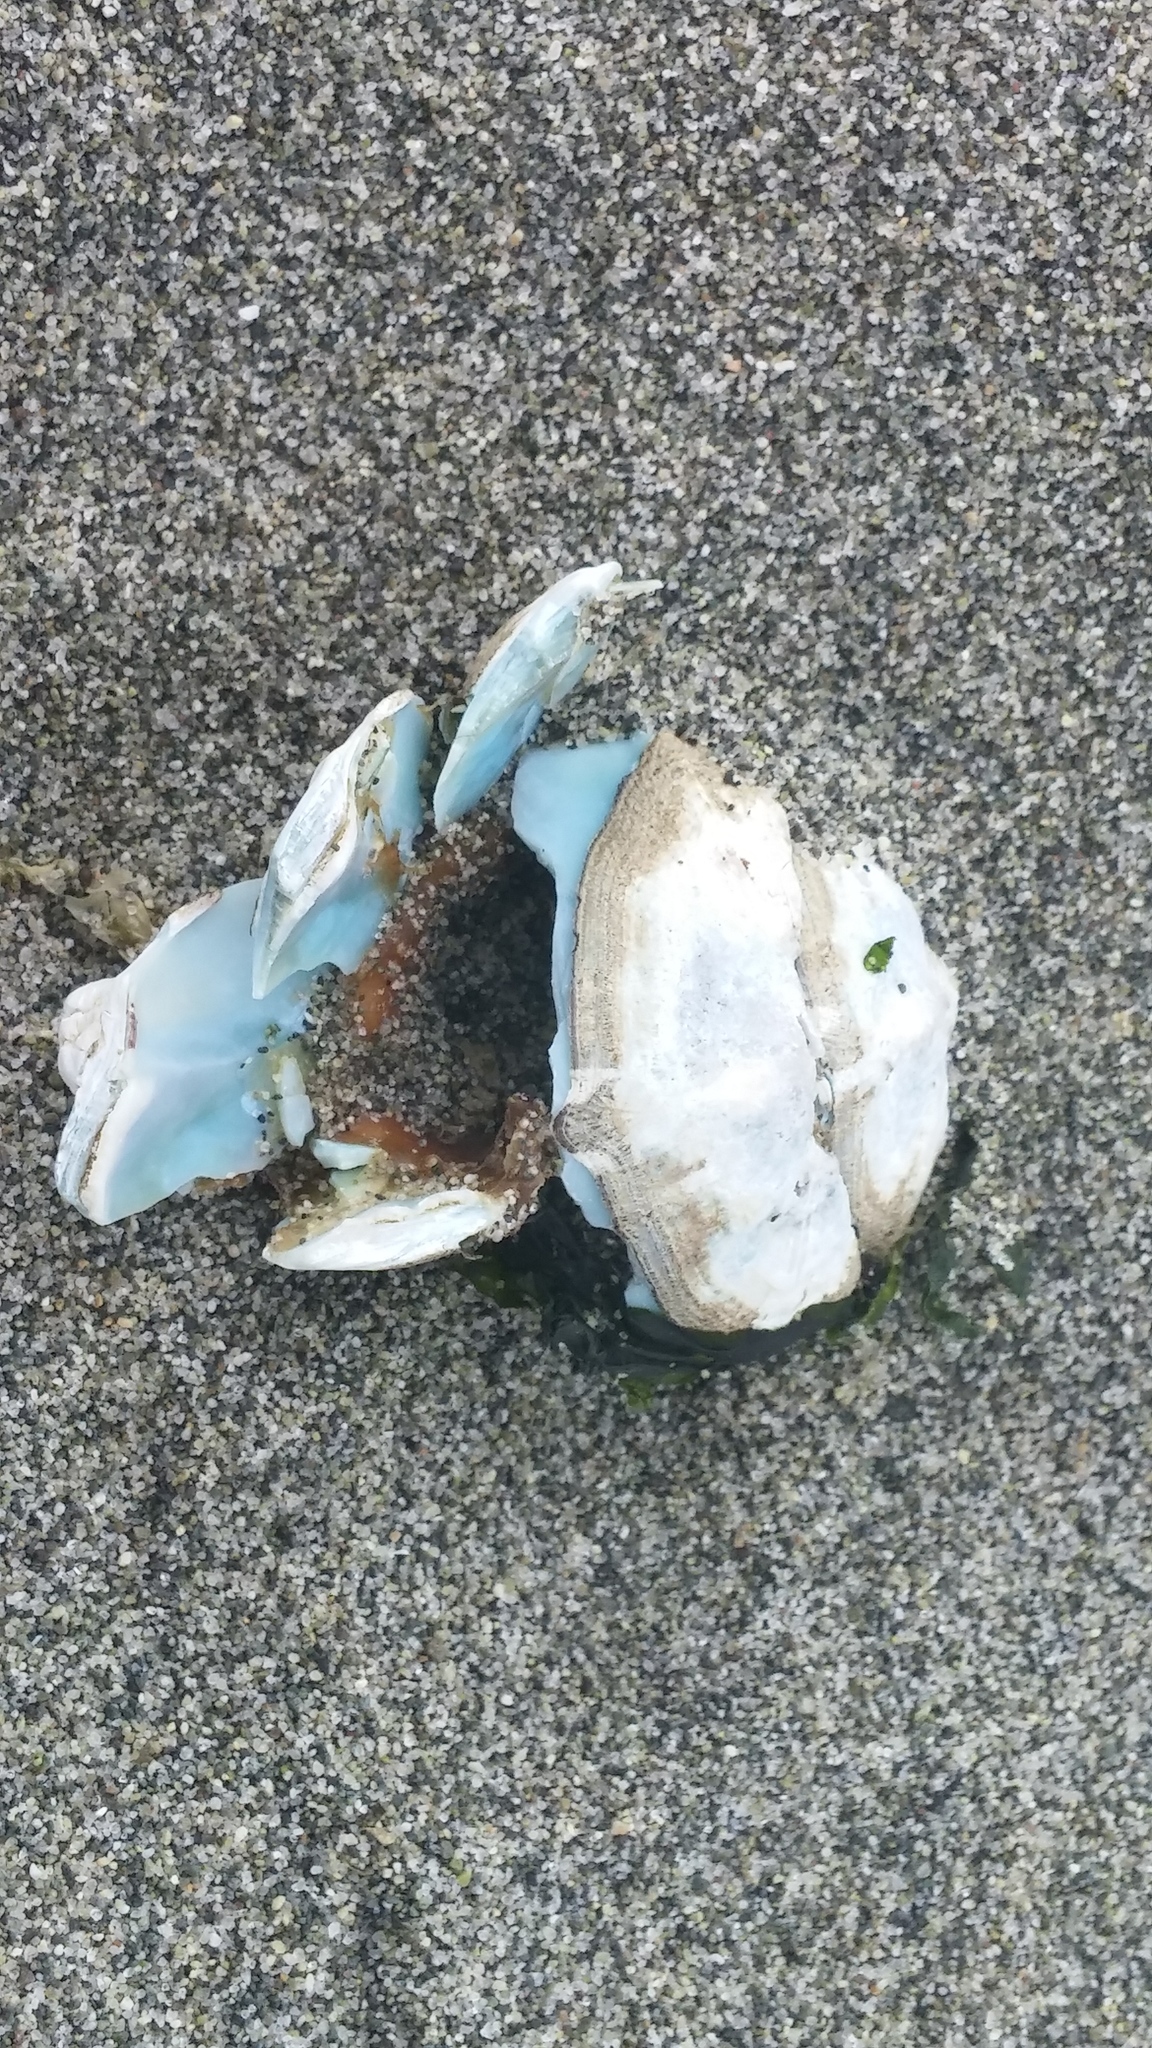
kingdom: Animalia
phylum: Mollusca
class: Polyplacophora
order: Chitonida
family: Mopaliidae
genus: Mopalia
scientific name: Mopalia muscosa
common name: Mossy chiton
